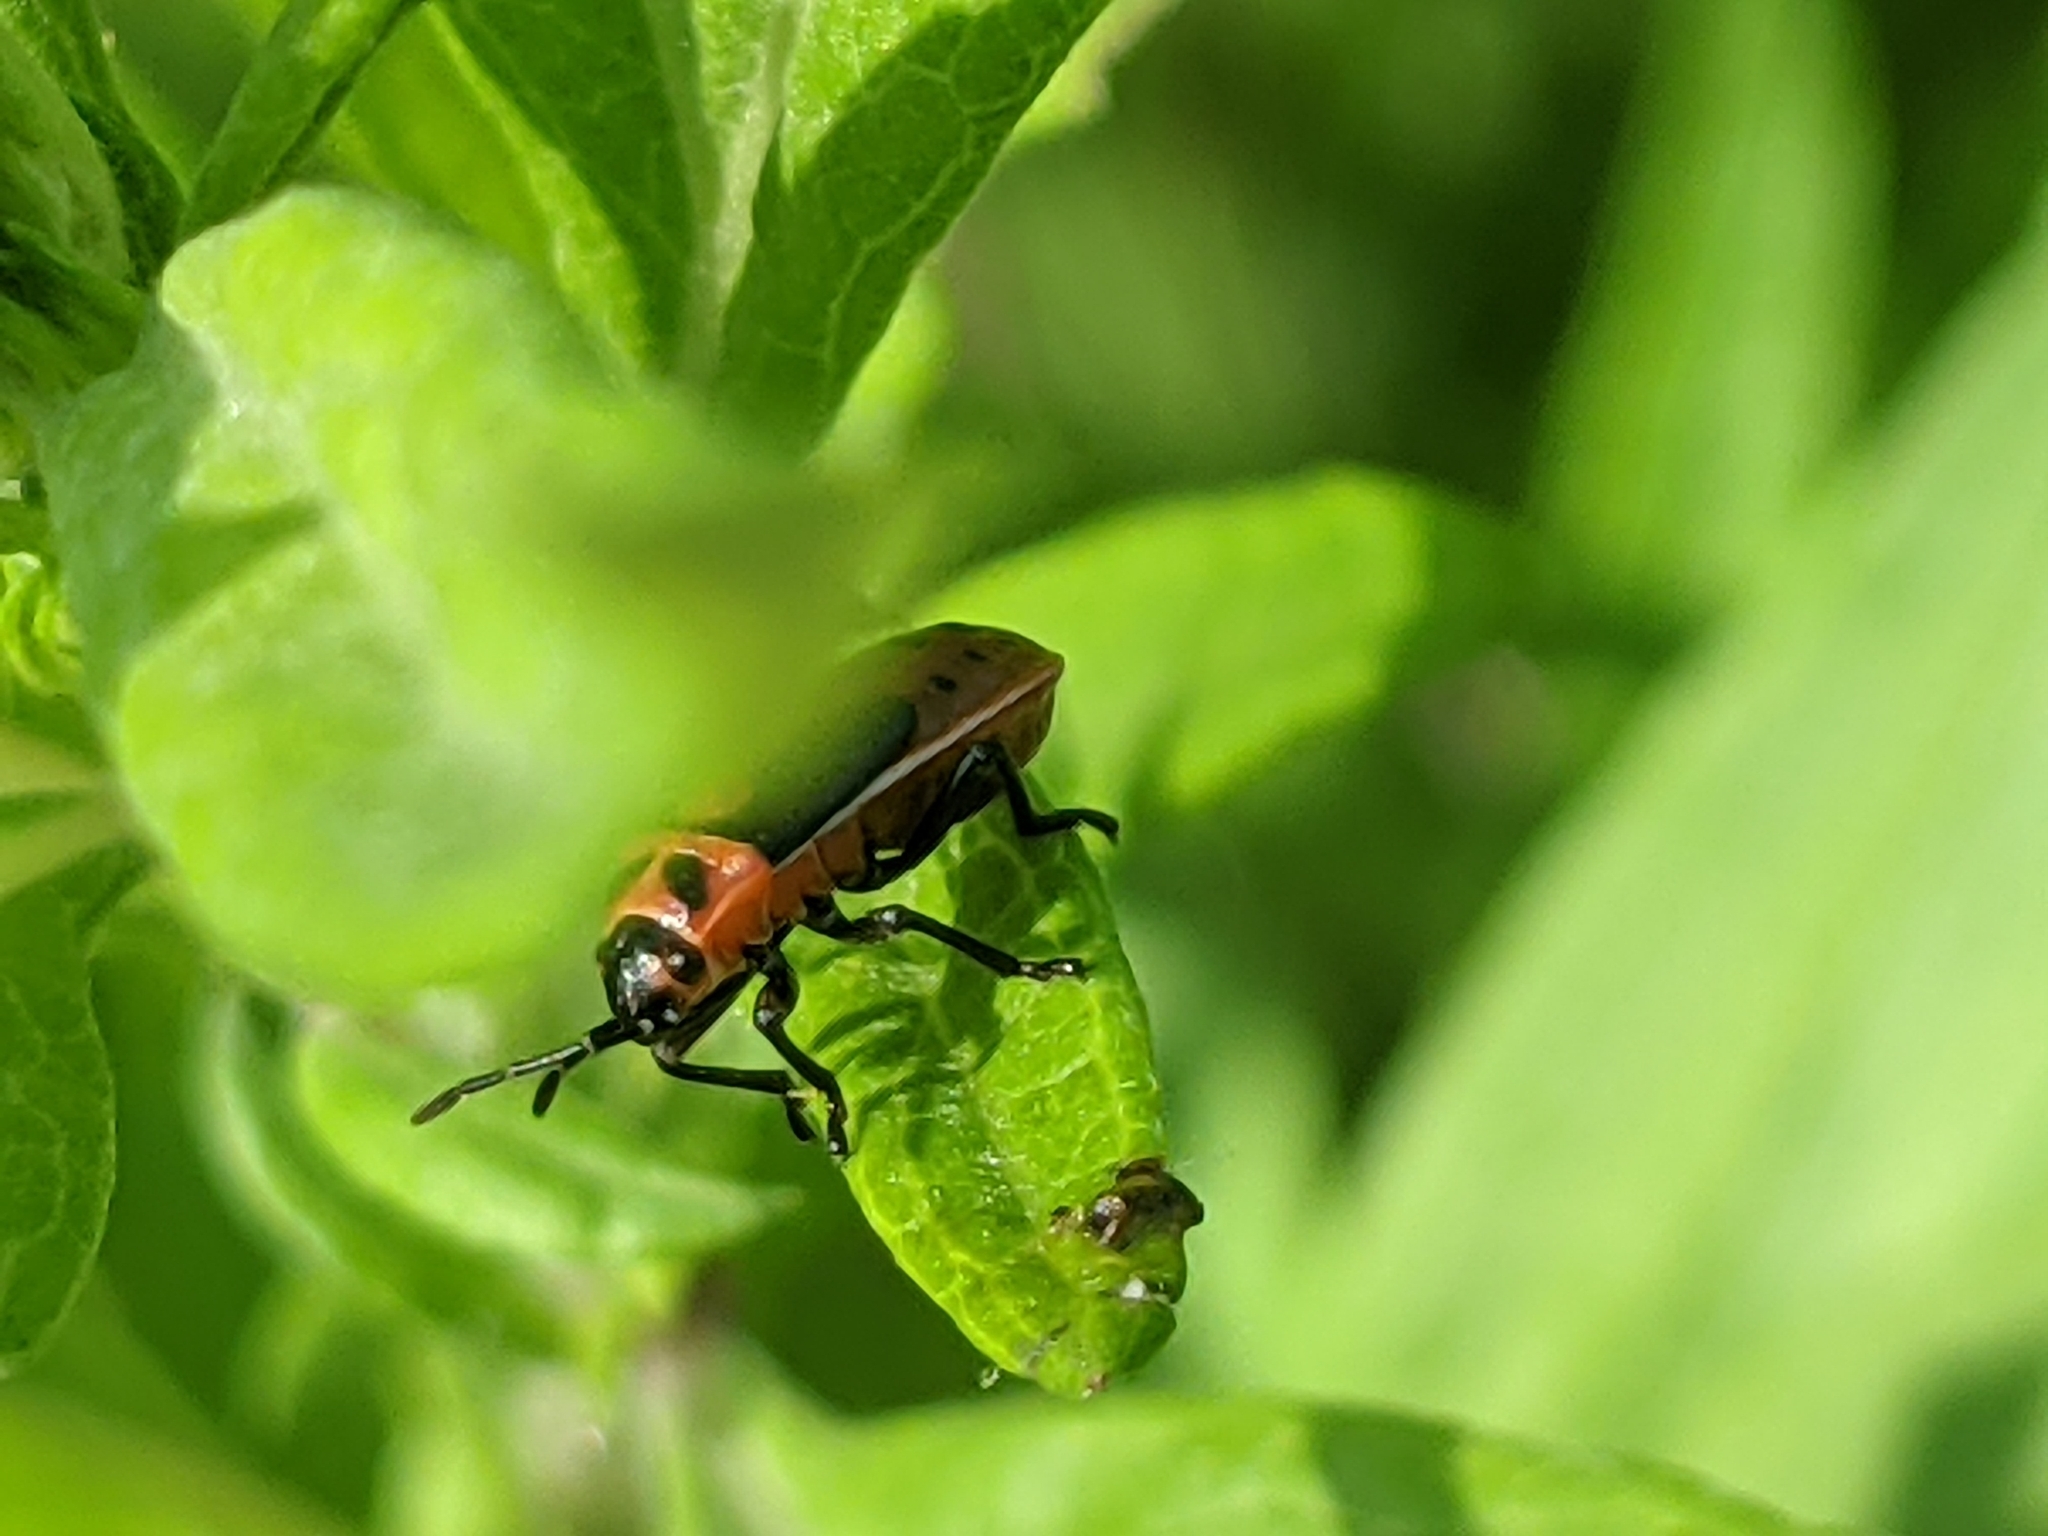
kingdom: Animalia
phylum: Arthropoda
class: Insecta
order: Hemiptera
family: Lygaeidae
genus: Lygaeus
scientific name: Lygaeus kalmii
